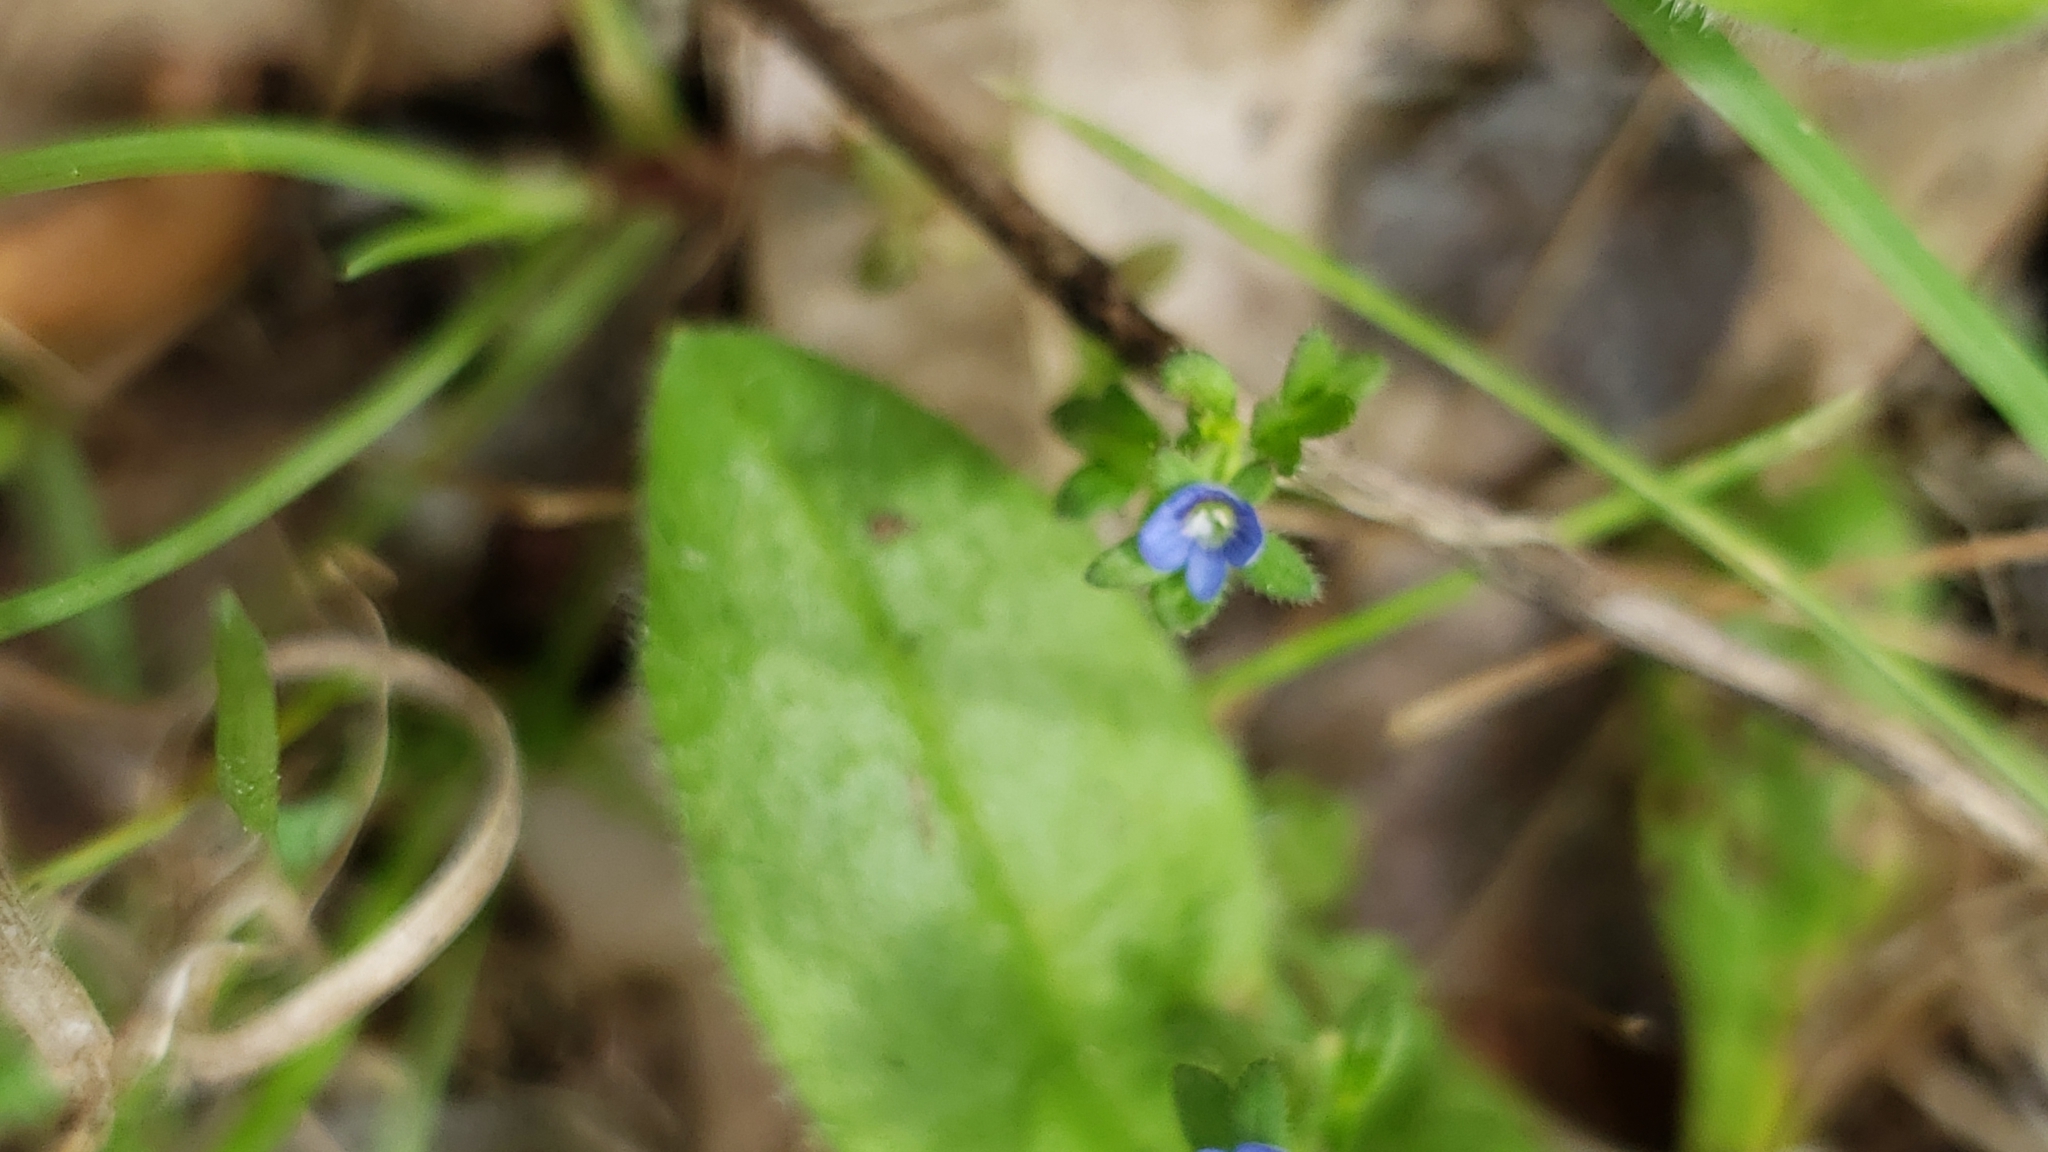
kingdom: Plantae
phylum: Tracheophyta
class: Magnoliopsida
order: Lamiales
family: Plantaginaceae
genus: Veronica
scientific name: Veronica arvensis
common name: Corn speedwell
